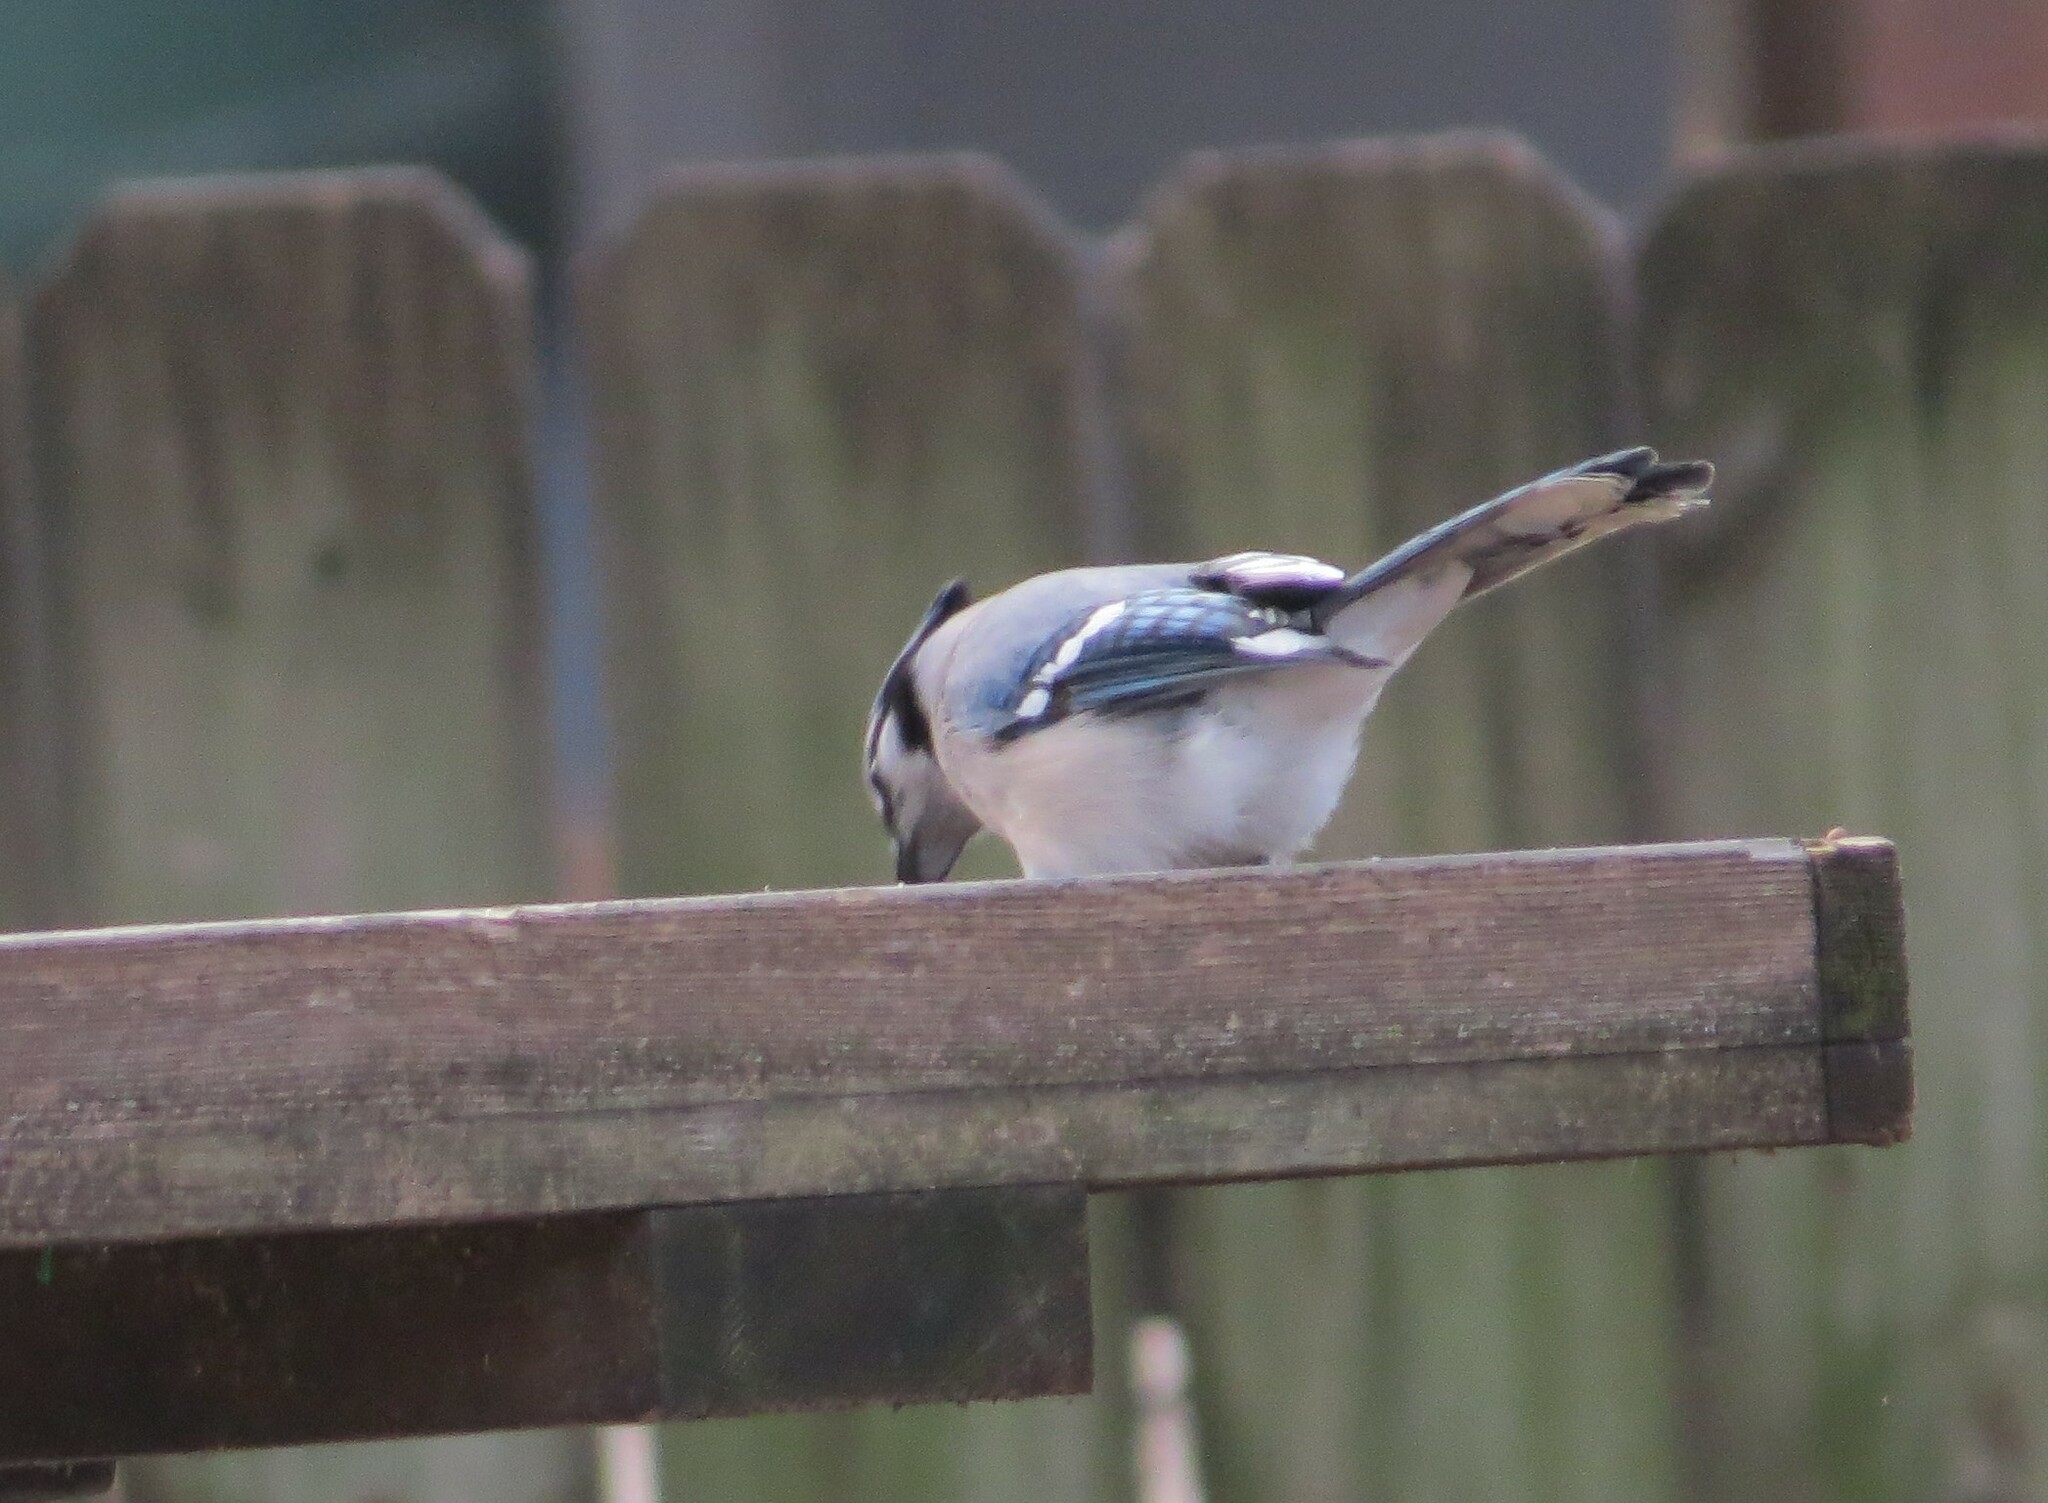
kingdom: Animalia
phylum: Chordata
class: Aves
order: Passeriformes
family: Corvidae
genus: Cyanocitta
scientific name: Cyanocitta cristata
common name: Blue jay
